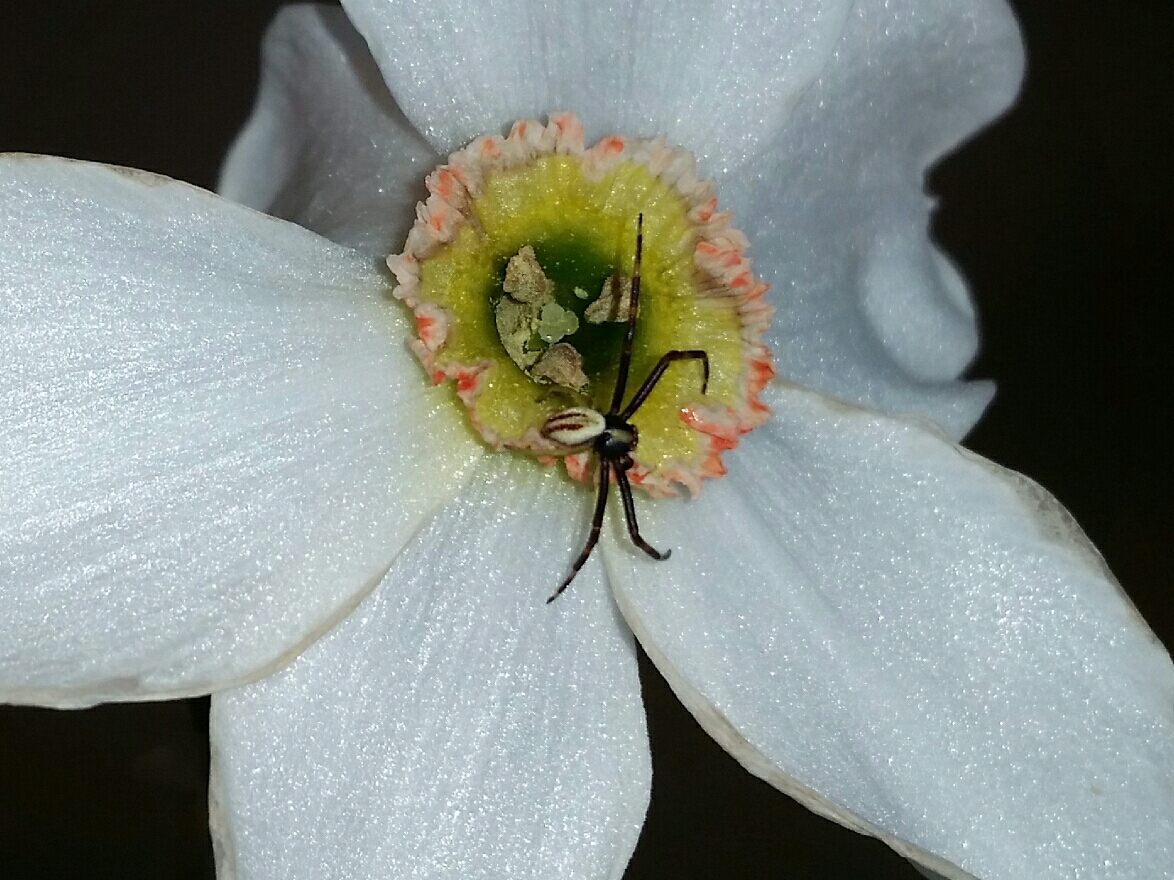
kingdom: Animalia
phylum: Arthropoda
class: Arachnida
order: Araneae
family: Thomisidae
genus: Misumena
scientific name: Misumena vatia
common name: Goldenrod crab spider
